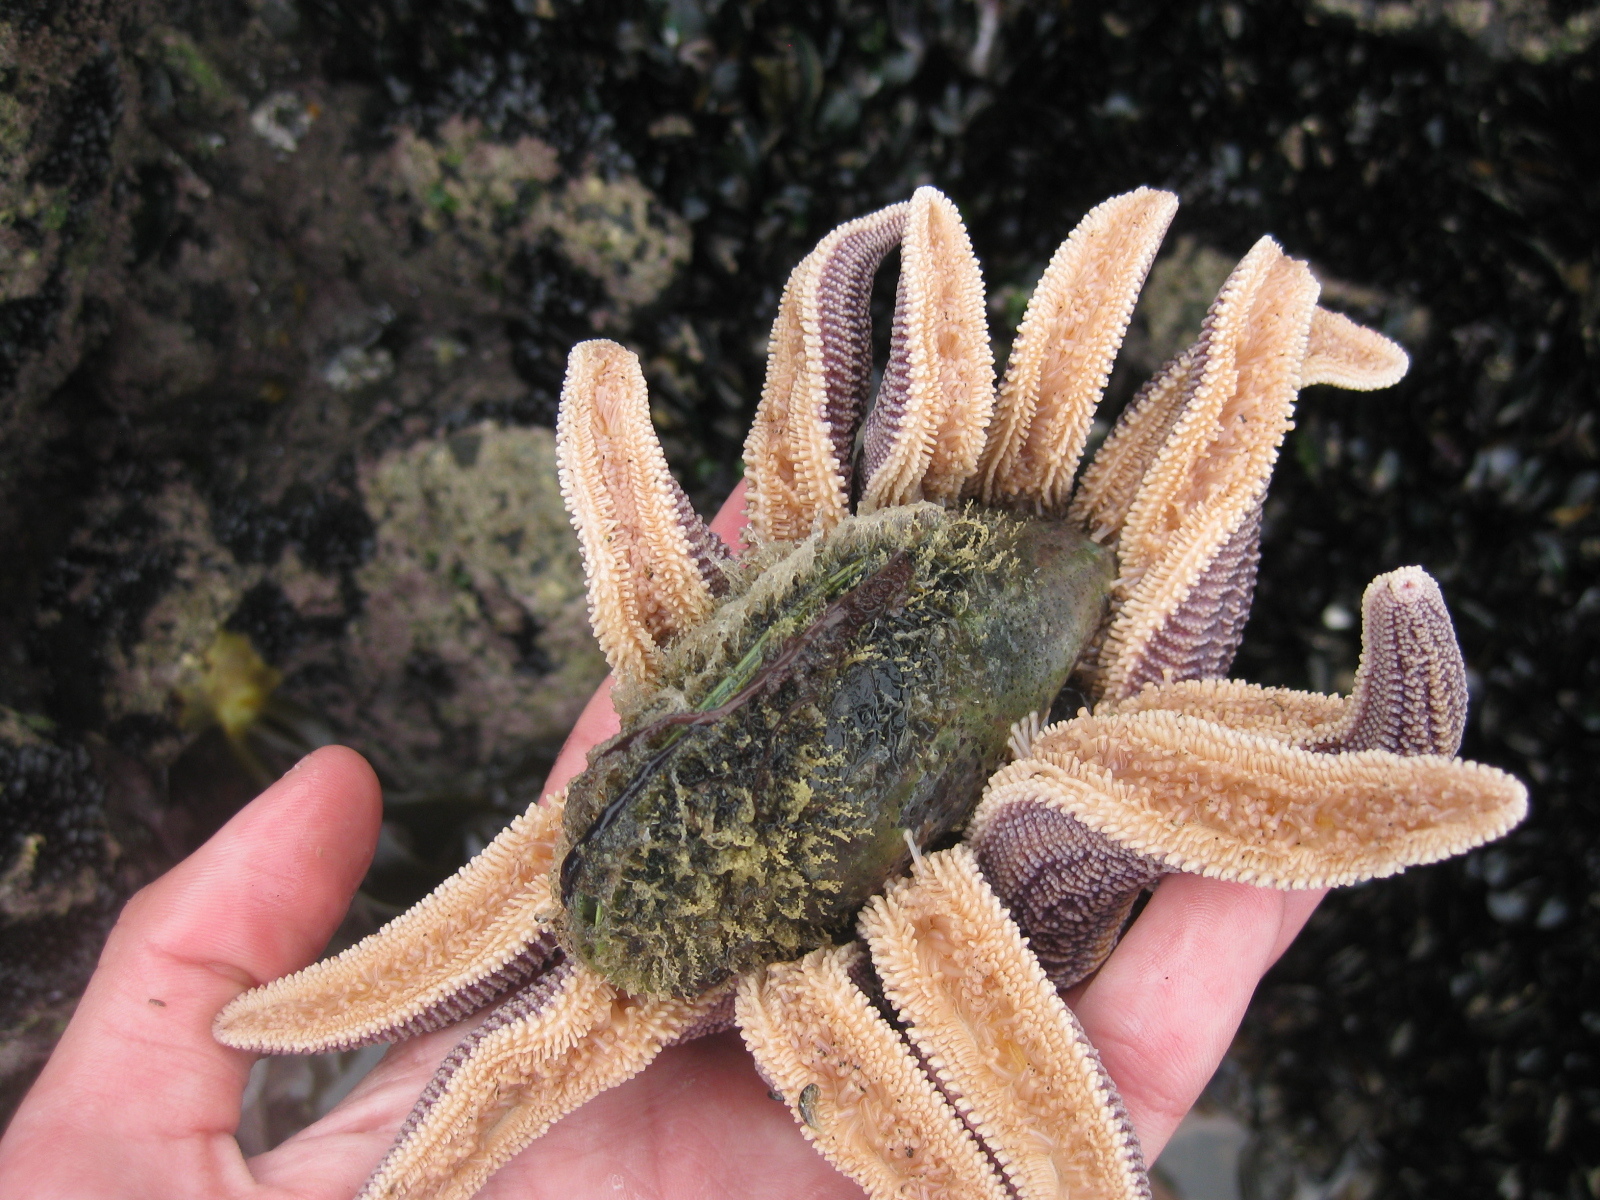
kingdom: Animalia
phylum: Echinodermata
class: Asteroidea
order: Forcipulatida
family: Stichasteridae
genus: Stichaster
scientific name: Stichaster australis
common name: Reef starfish
